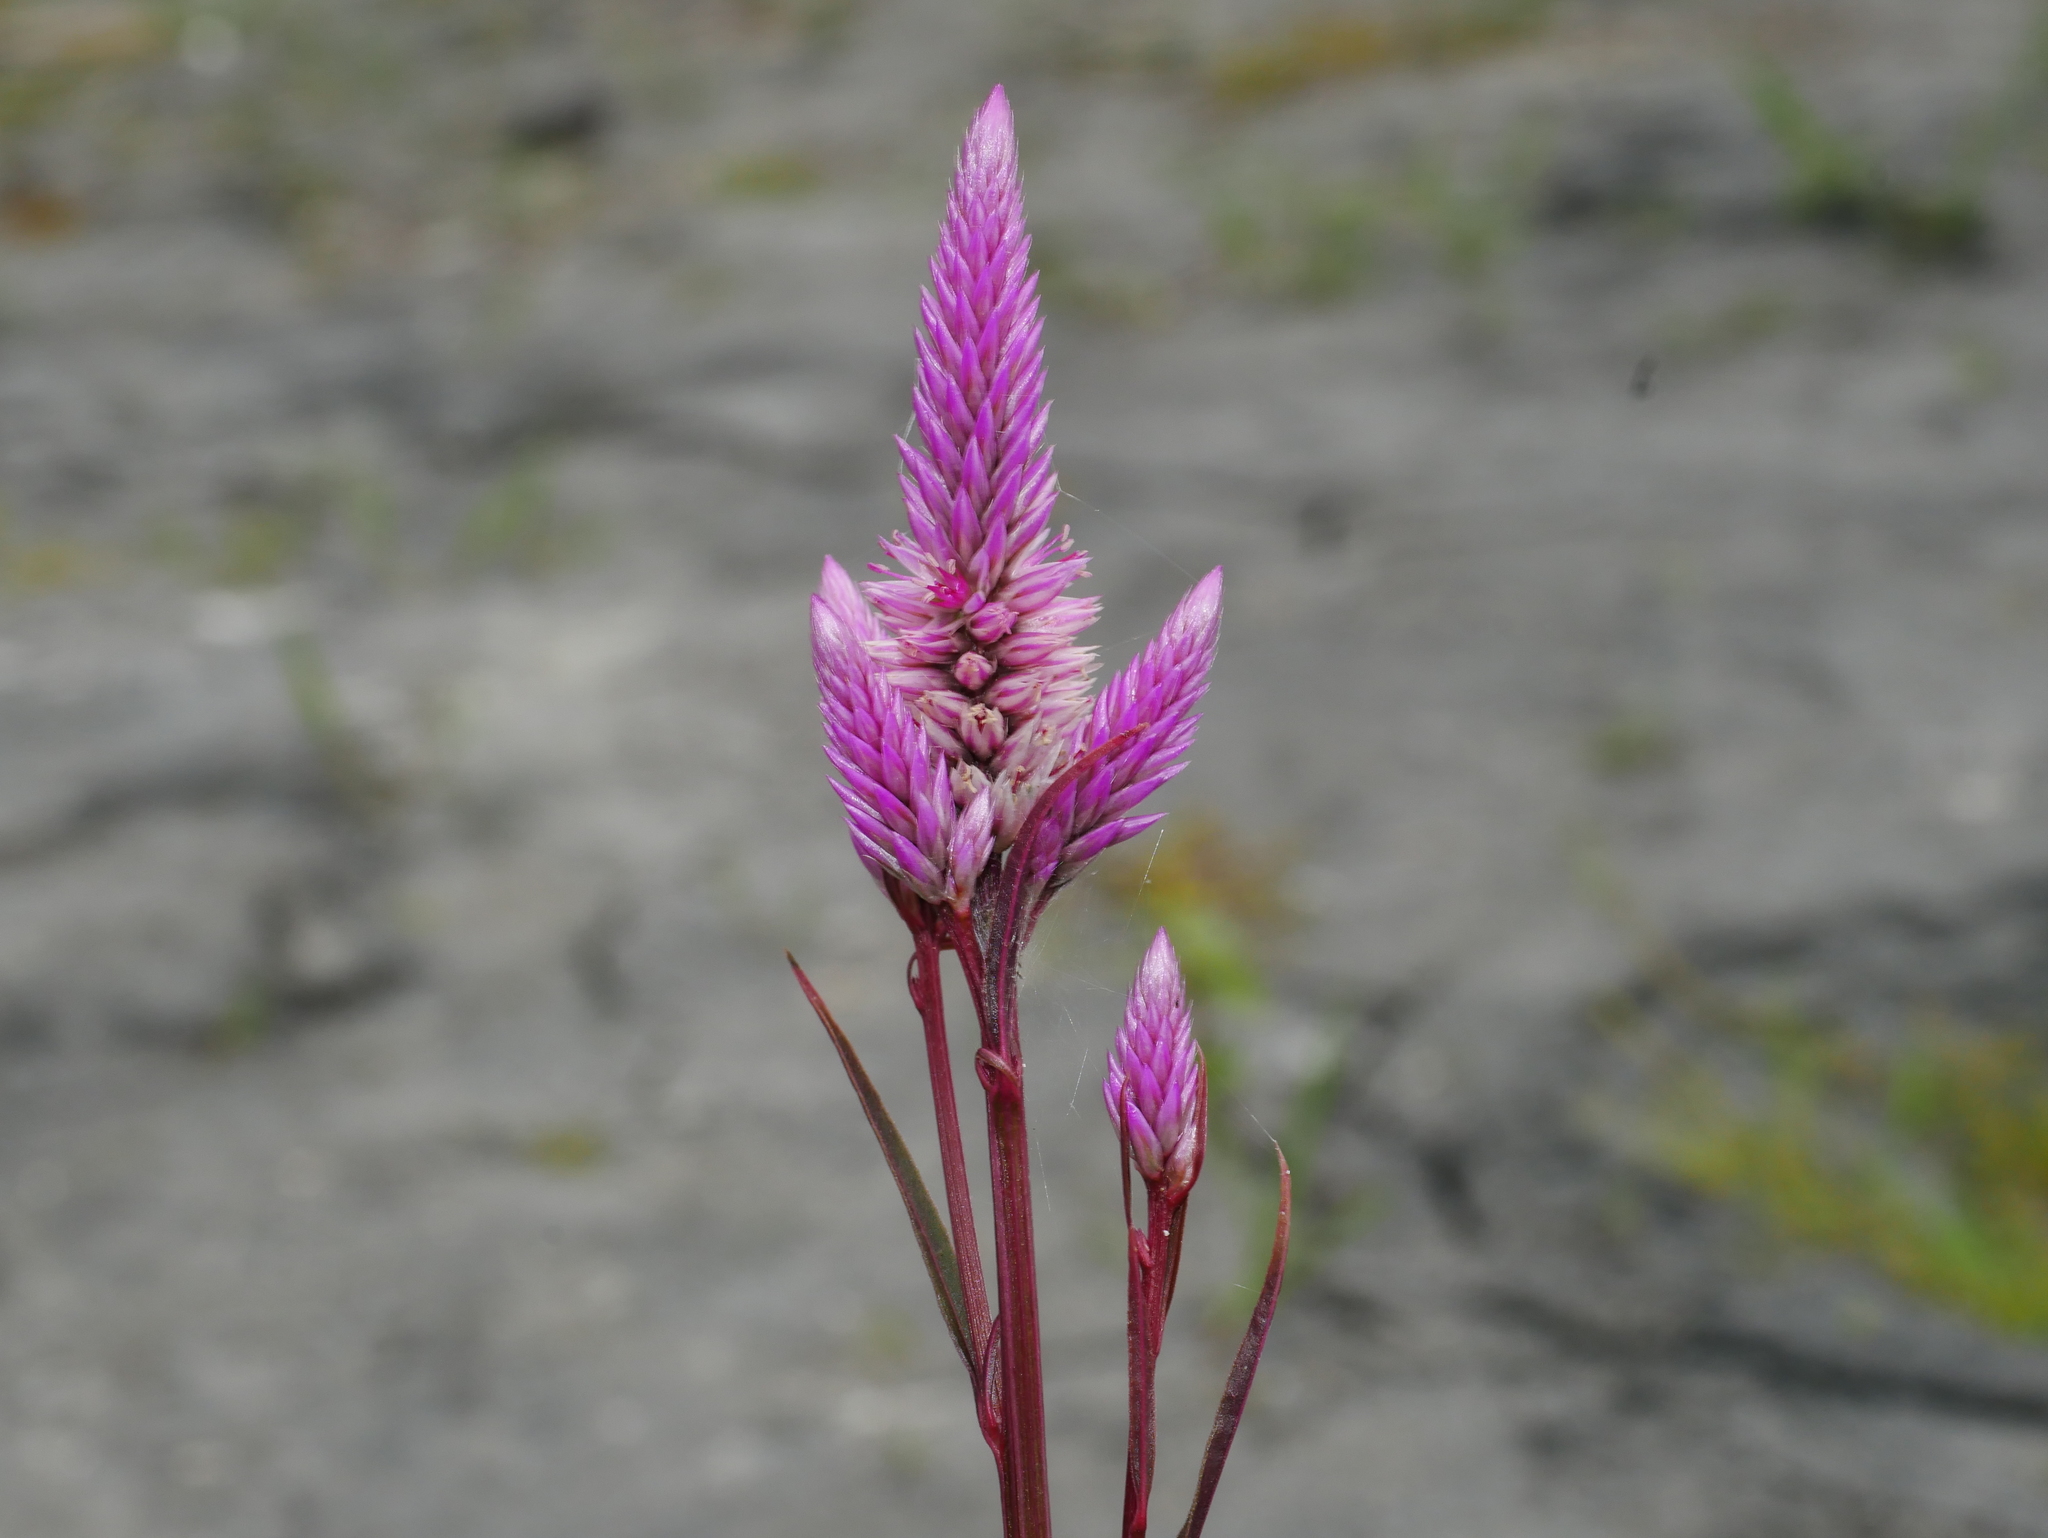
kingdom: Plantae
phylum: Tracheophyta
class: Magnoliopsida
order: Caryophyllales
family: Amaranthaceae
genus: Celosia
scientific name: Celosia argentea
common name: Feather cockscomb
